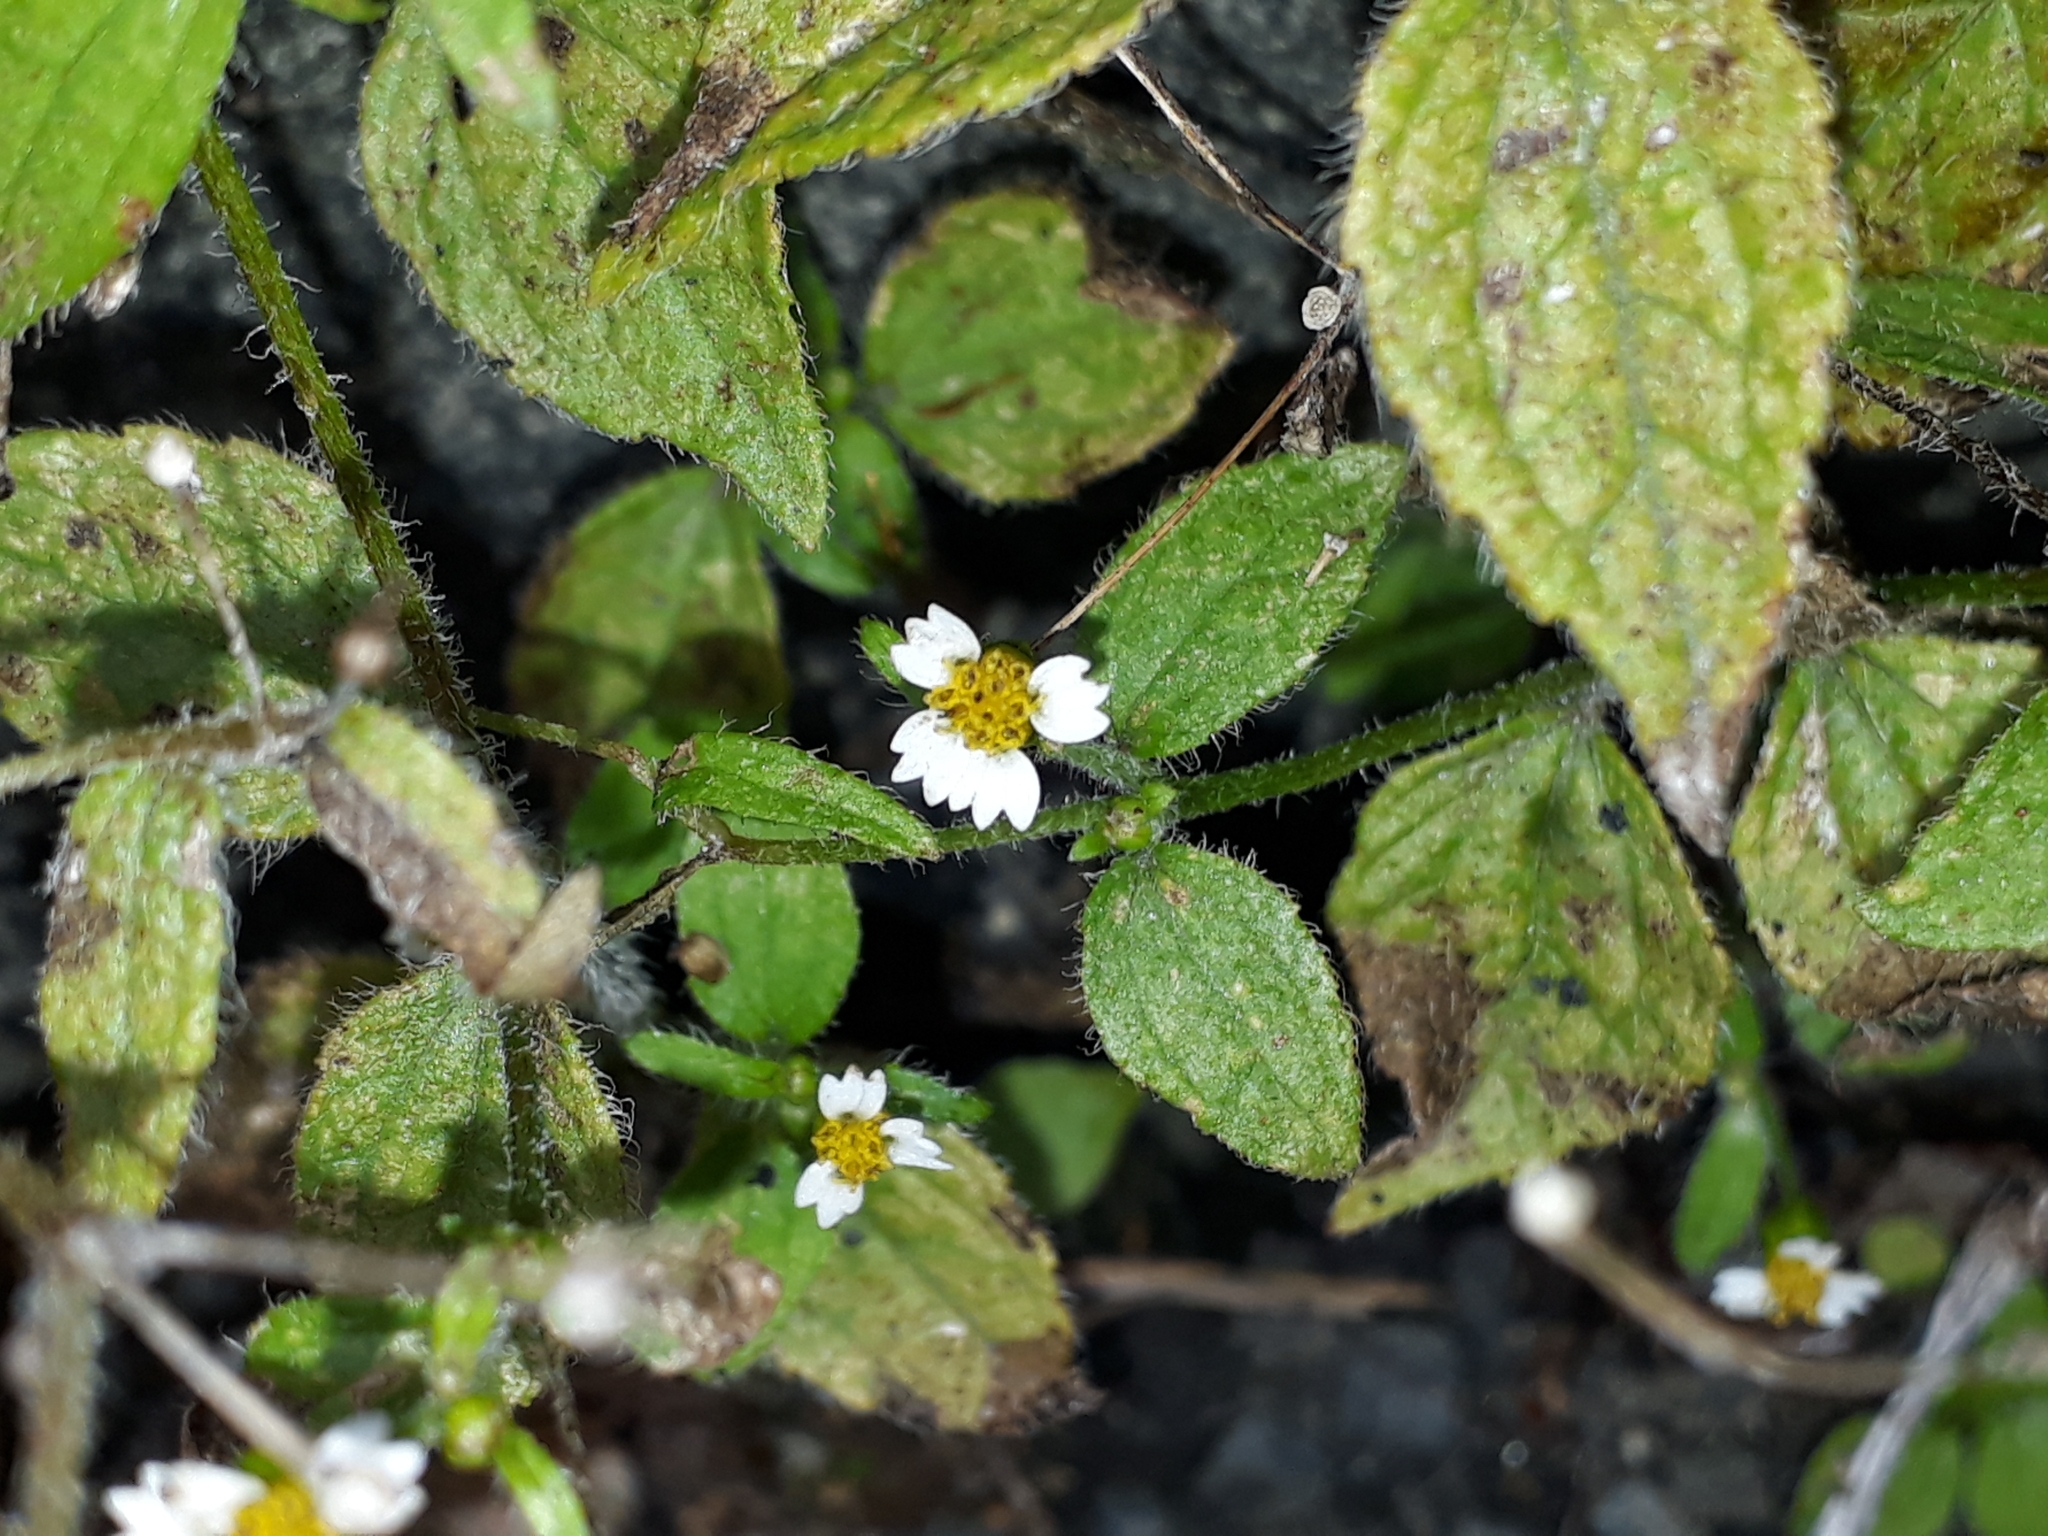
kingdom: Plantae
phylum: Tracheophyta
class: Magnoliopsida
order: Asterales
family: Asteraceae
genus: Galinsoga
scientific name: Galinsoga quadriradiata
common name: Shaggy soldier
